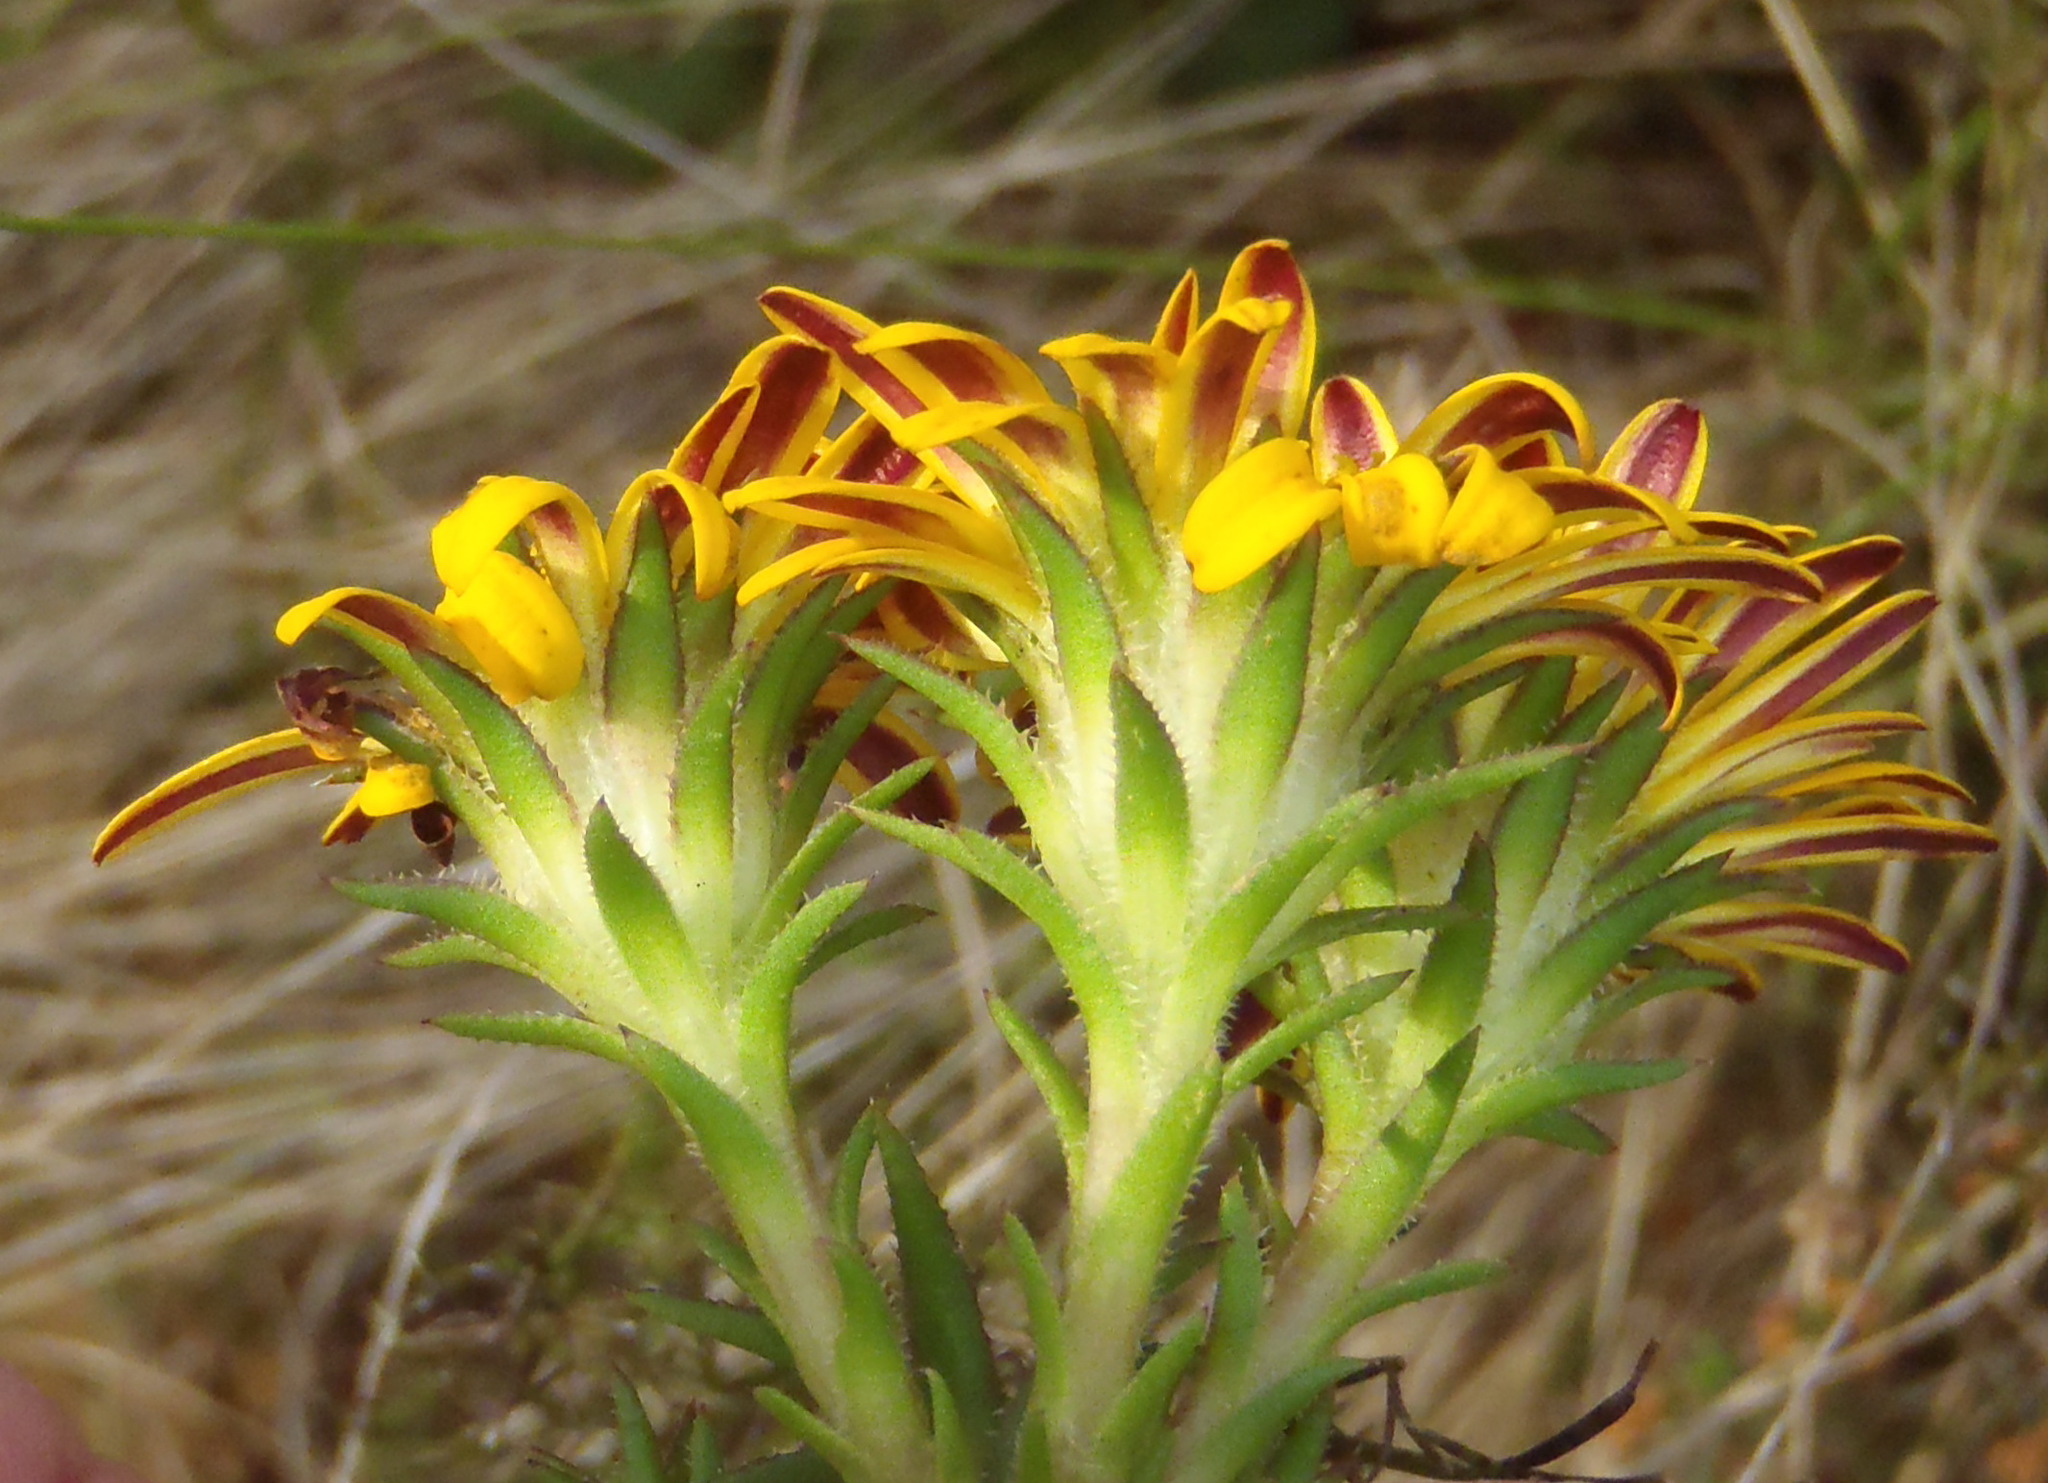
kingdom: Plantae
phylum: Tracheophyta
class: Magnoliopsida
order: Asterales
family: Asteraceae
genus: Oedera
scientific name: Oedera capensis
